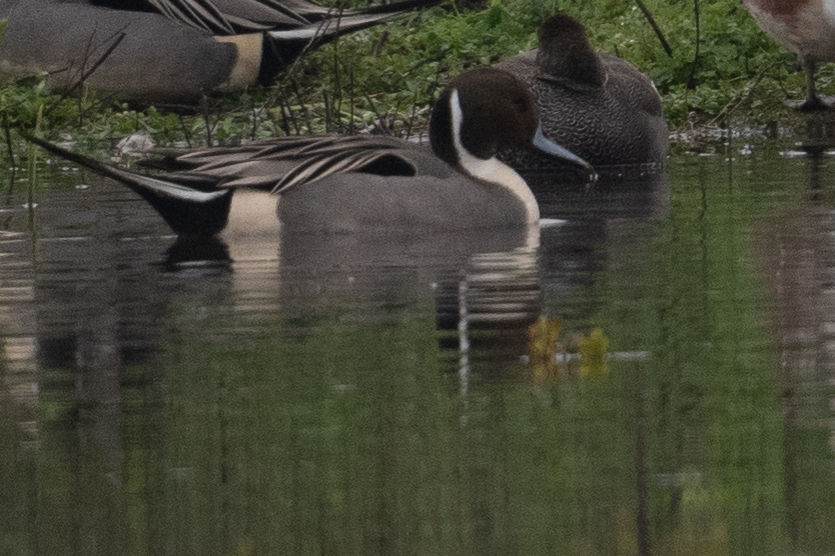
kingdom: Animalia
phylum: Chordata
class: Aves
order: Anseriformes
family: Anatidae
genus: Anas
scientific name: Anas acuta
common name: Northern pintail
